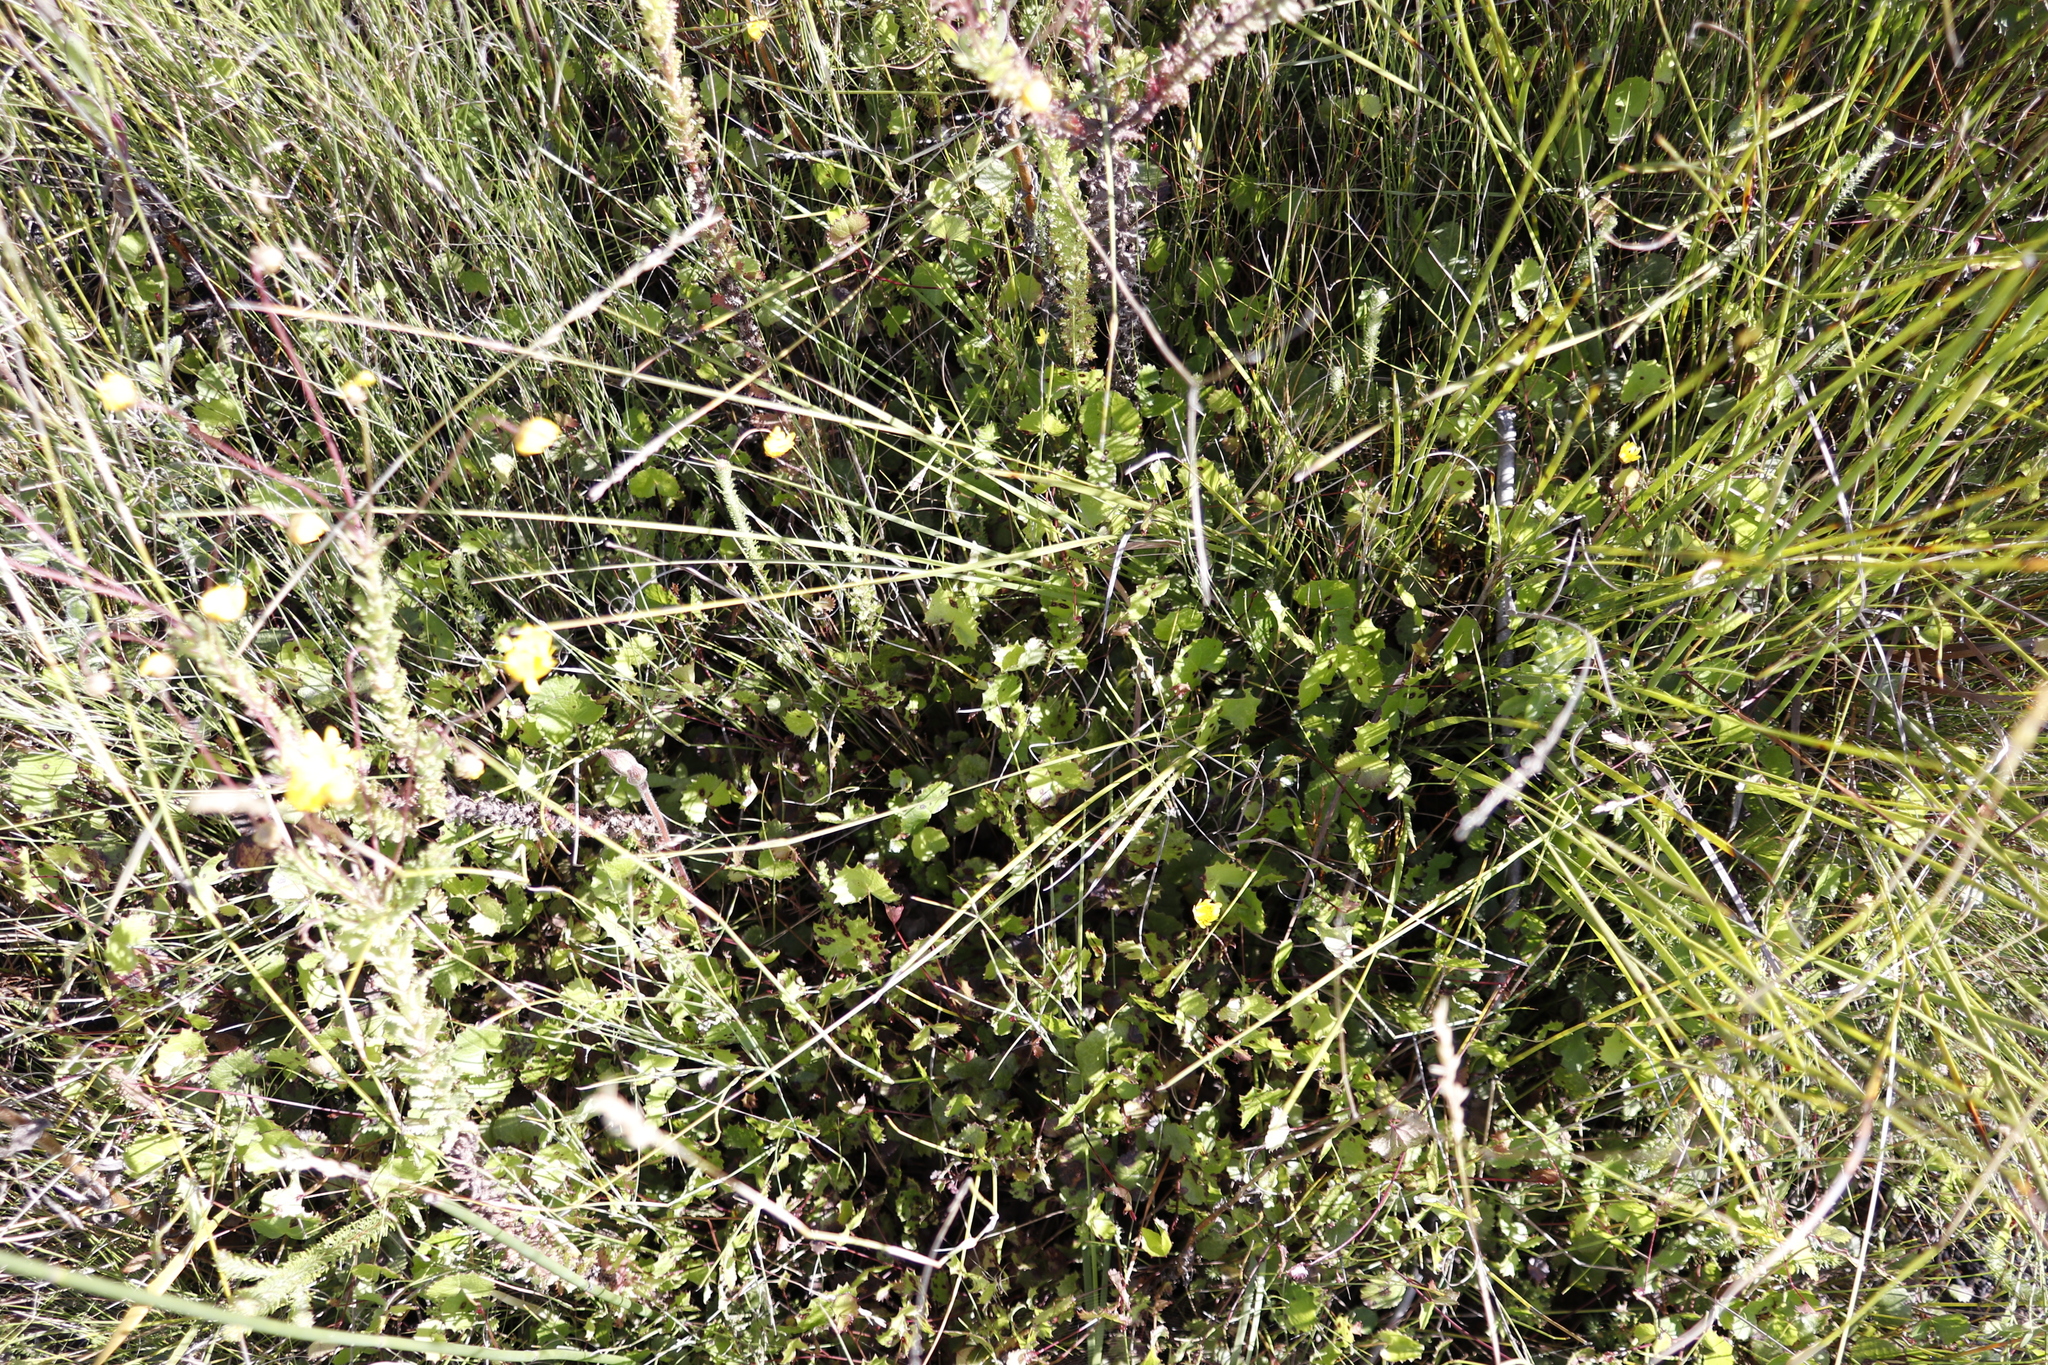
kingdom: Plantae
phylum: Tracheophyta
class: Magnoliopsida
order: Apiales
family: Apiaceae
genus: Centella
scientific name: Centella eriantha
